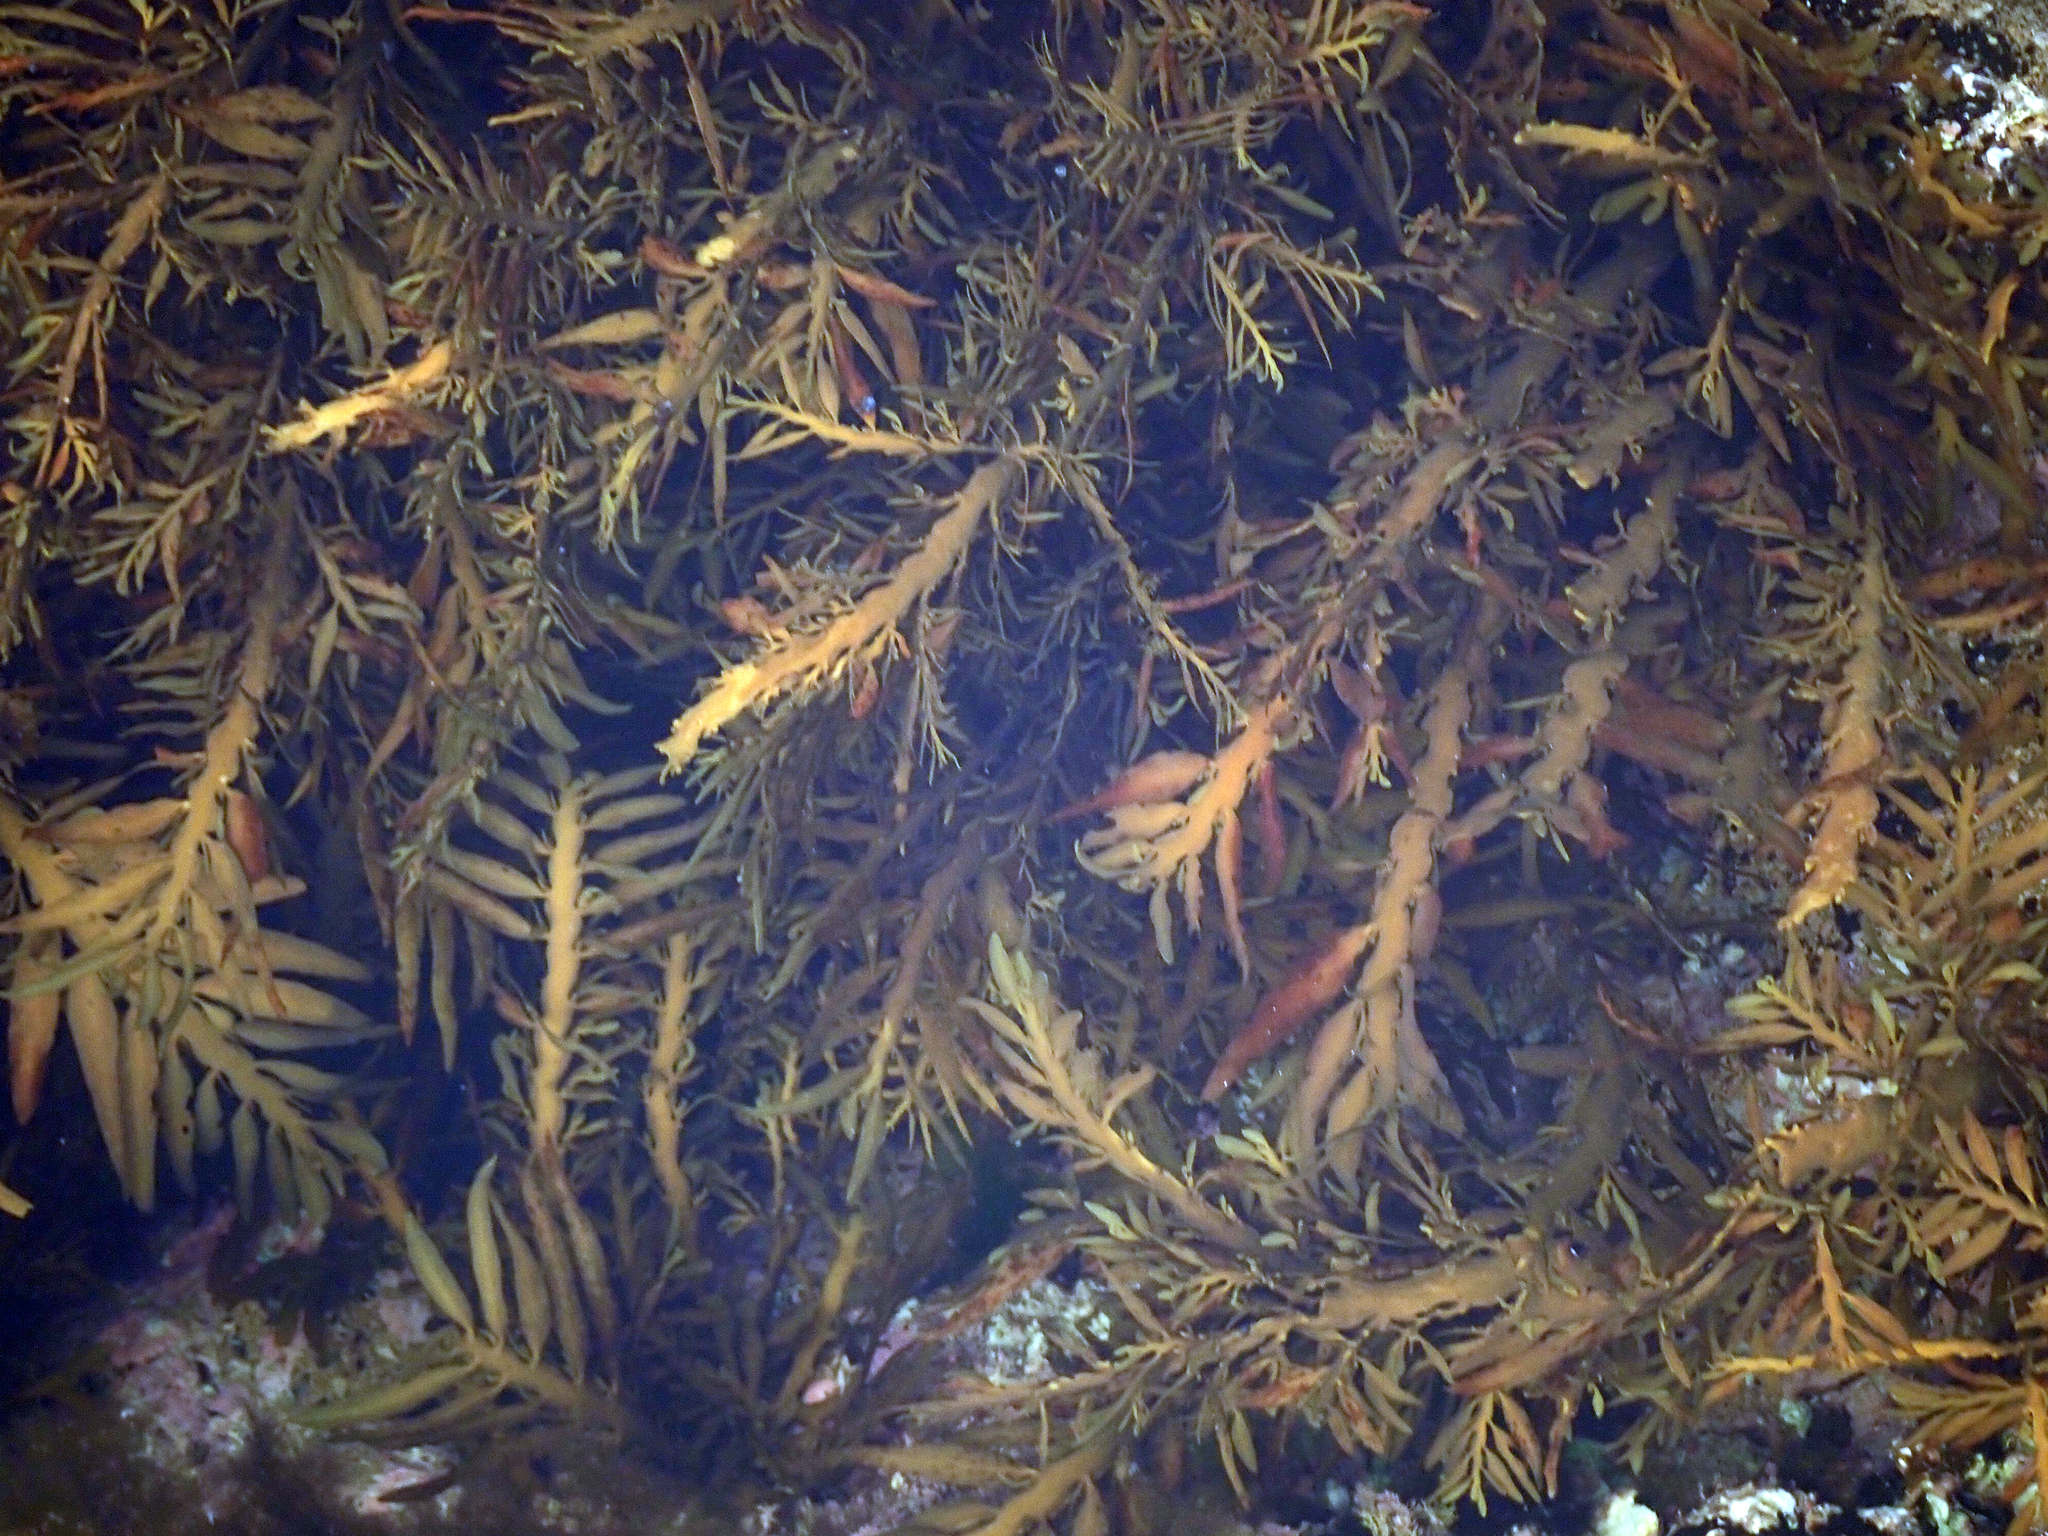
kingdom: Chromista
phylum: Ochrophyta
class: Phaeophyceae
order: Fucales
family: Sargassaceae
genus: Carpophyllum
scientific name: Carpophyllum maschalocarpum
